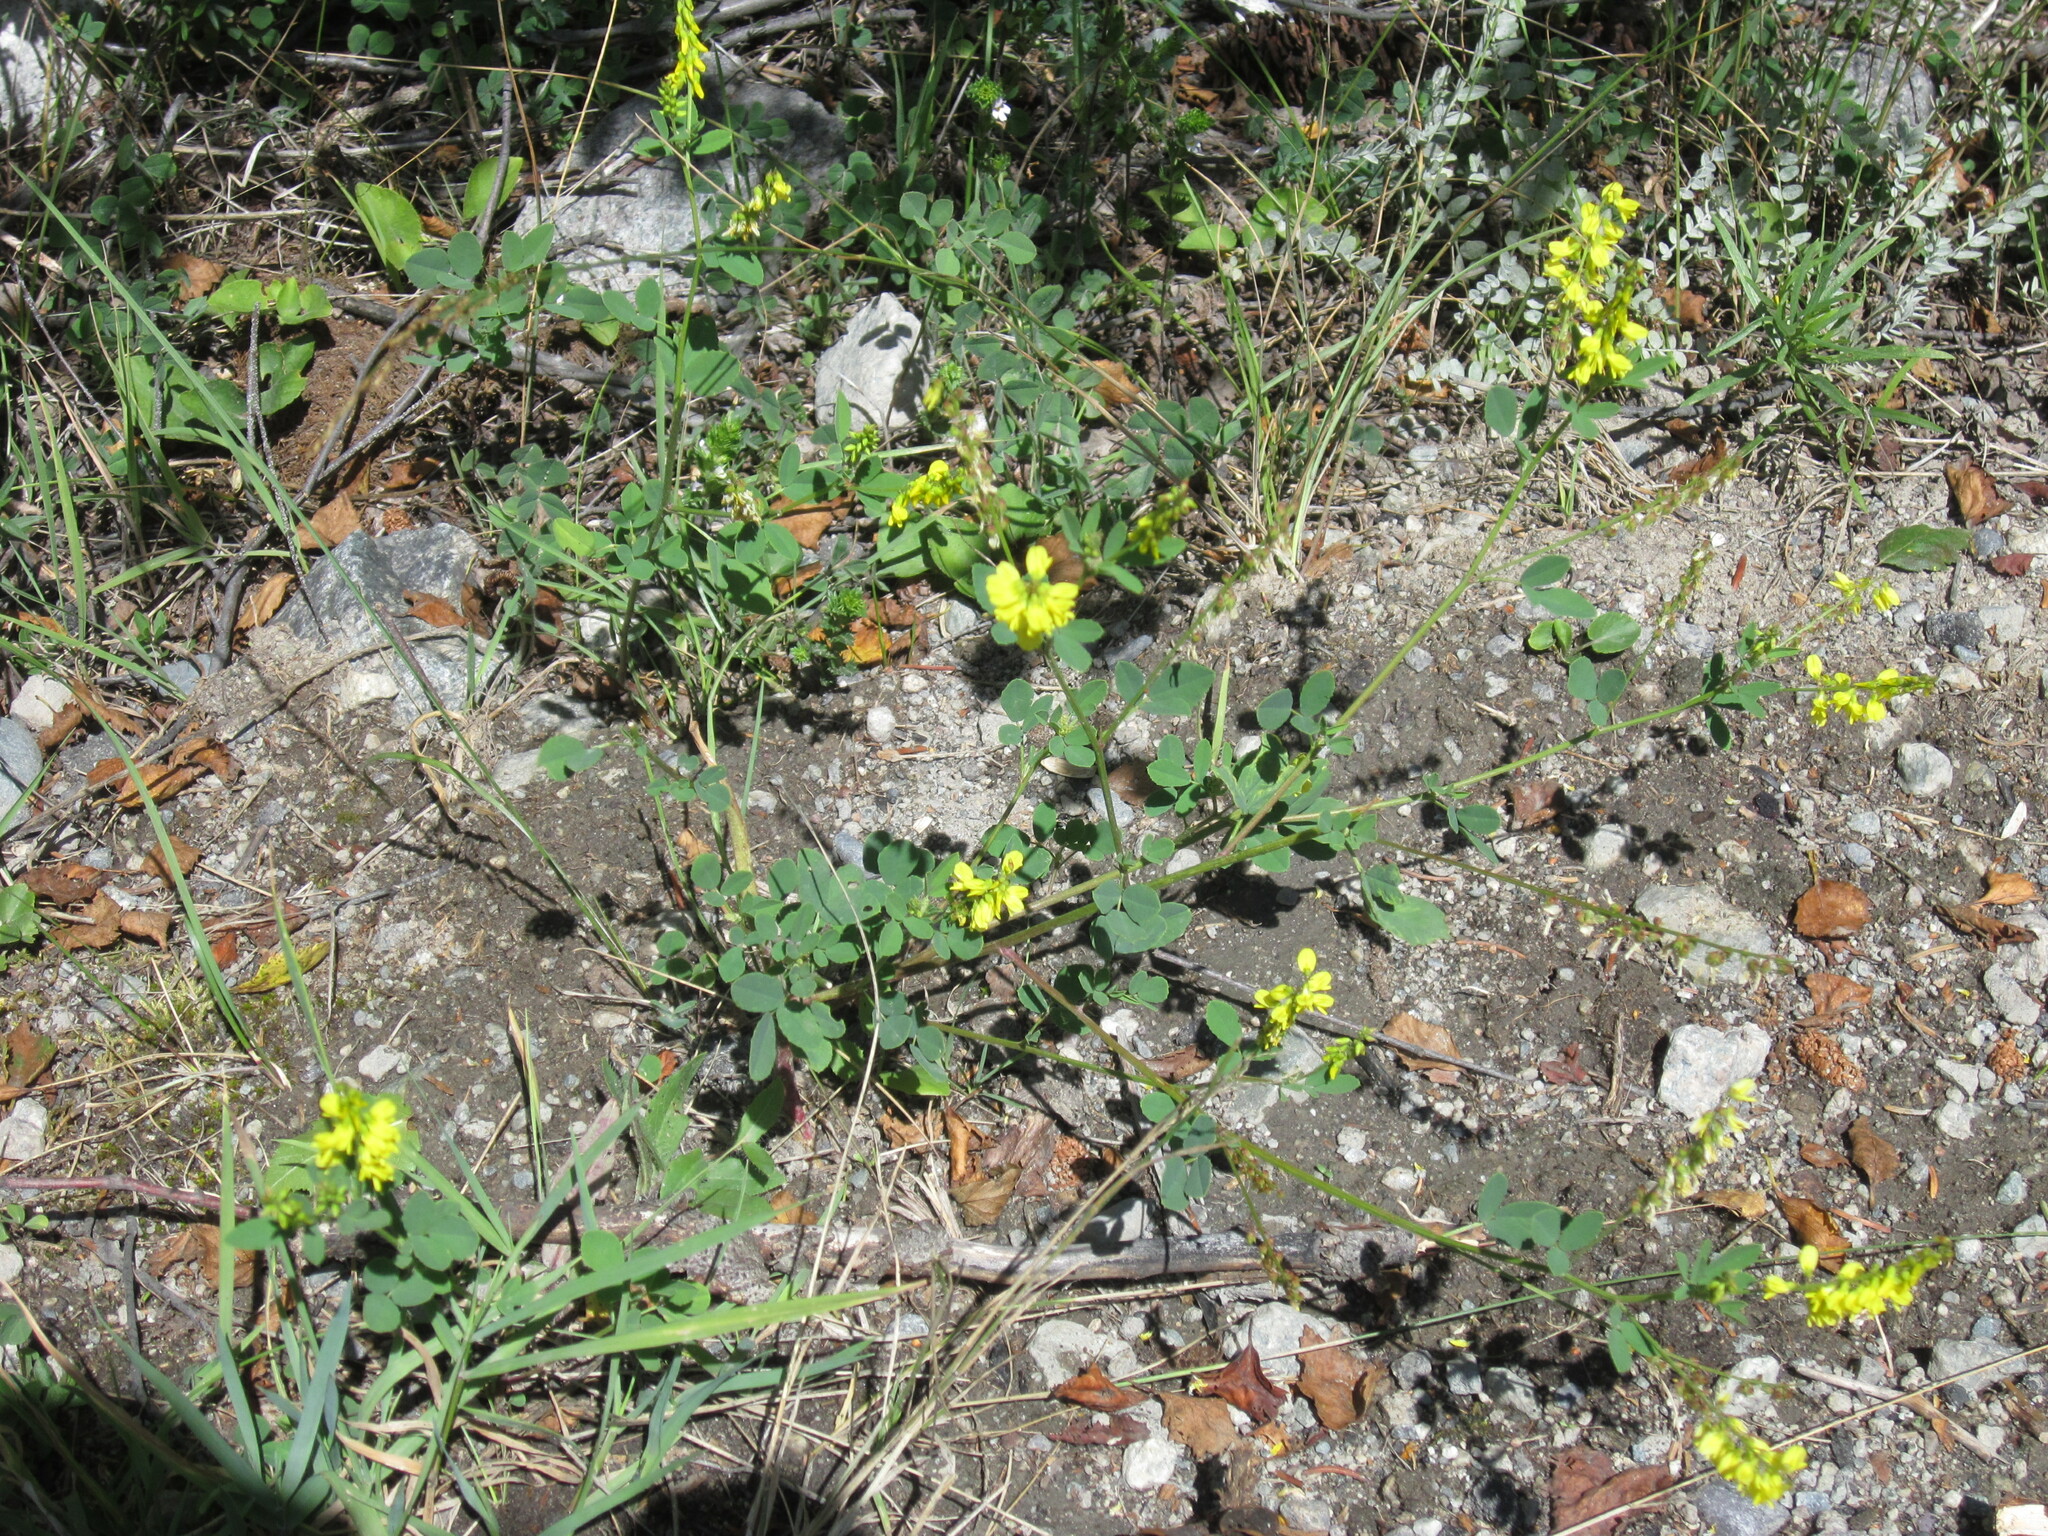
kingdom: Plantae
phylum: Tracheophyta
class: Magnoliopsida
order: Fabales
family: Fabaceae
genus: Melilotus
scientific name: Melilotus officinalis
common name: Sweetclover
